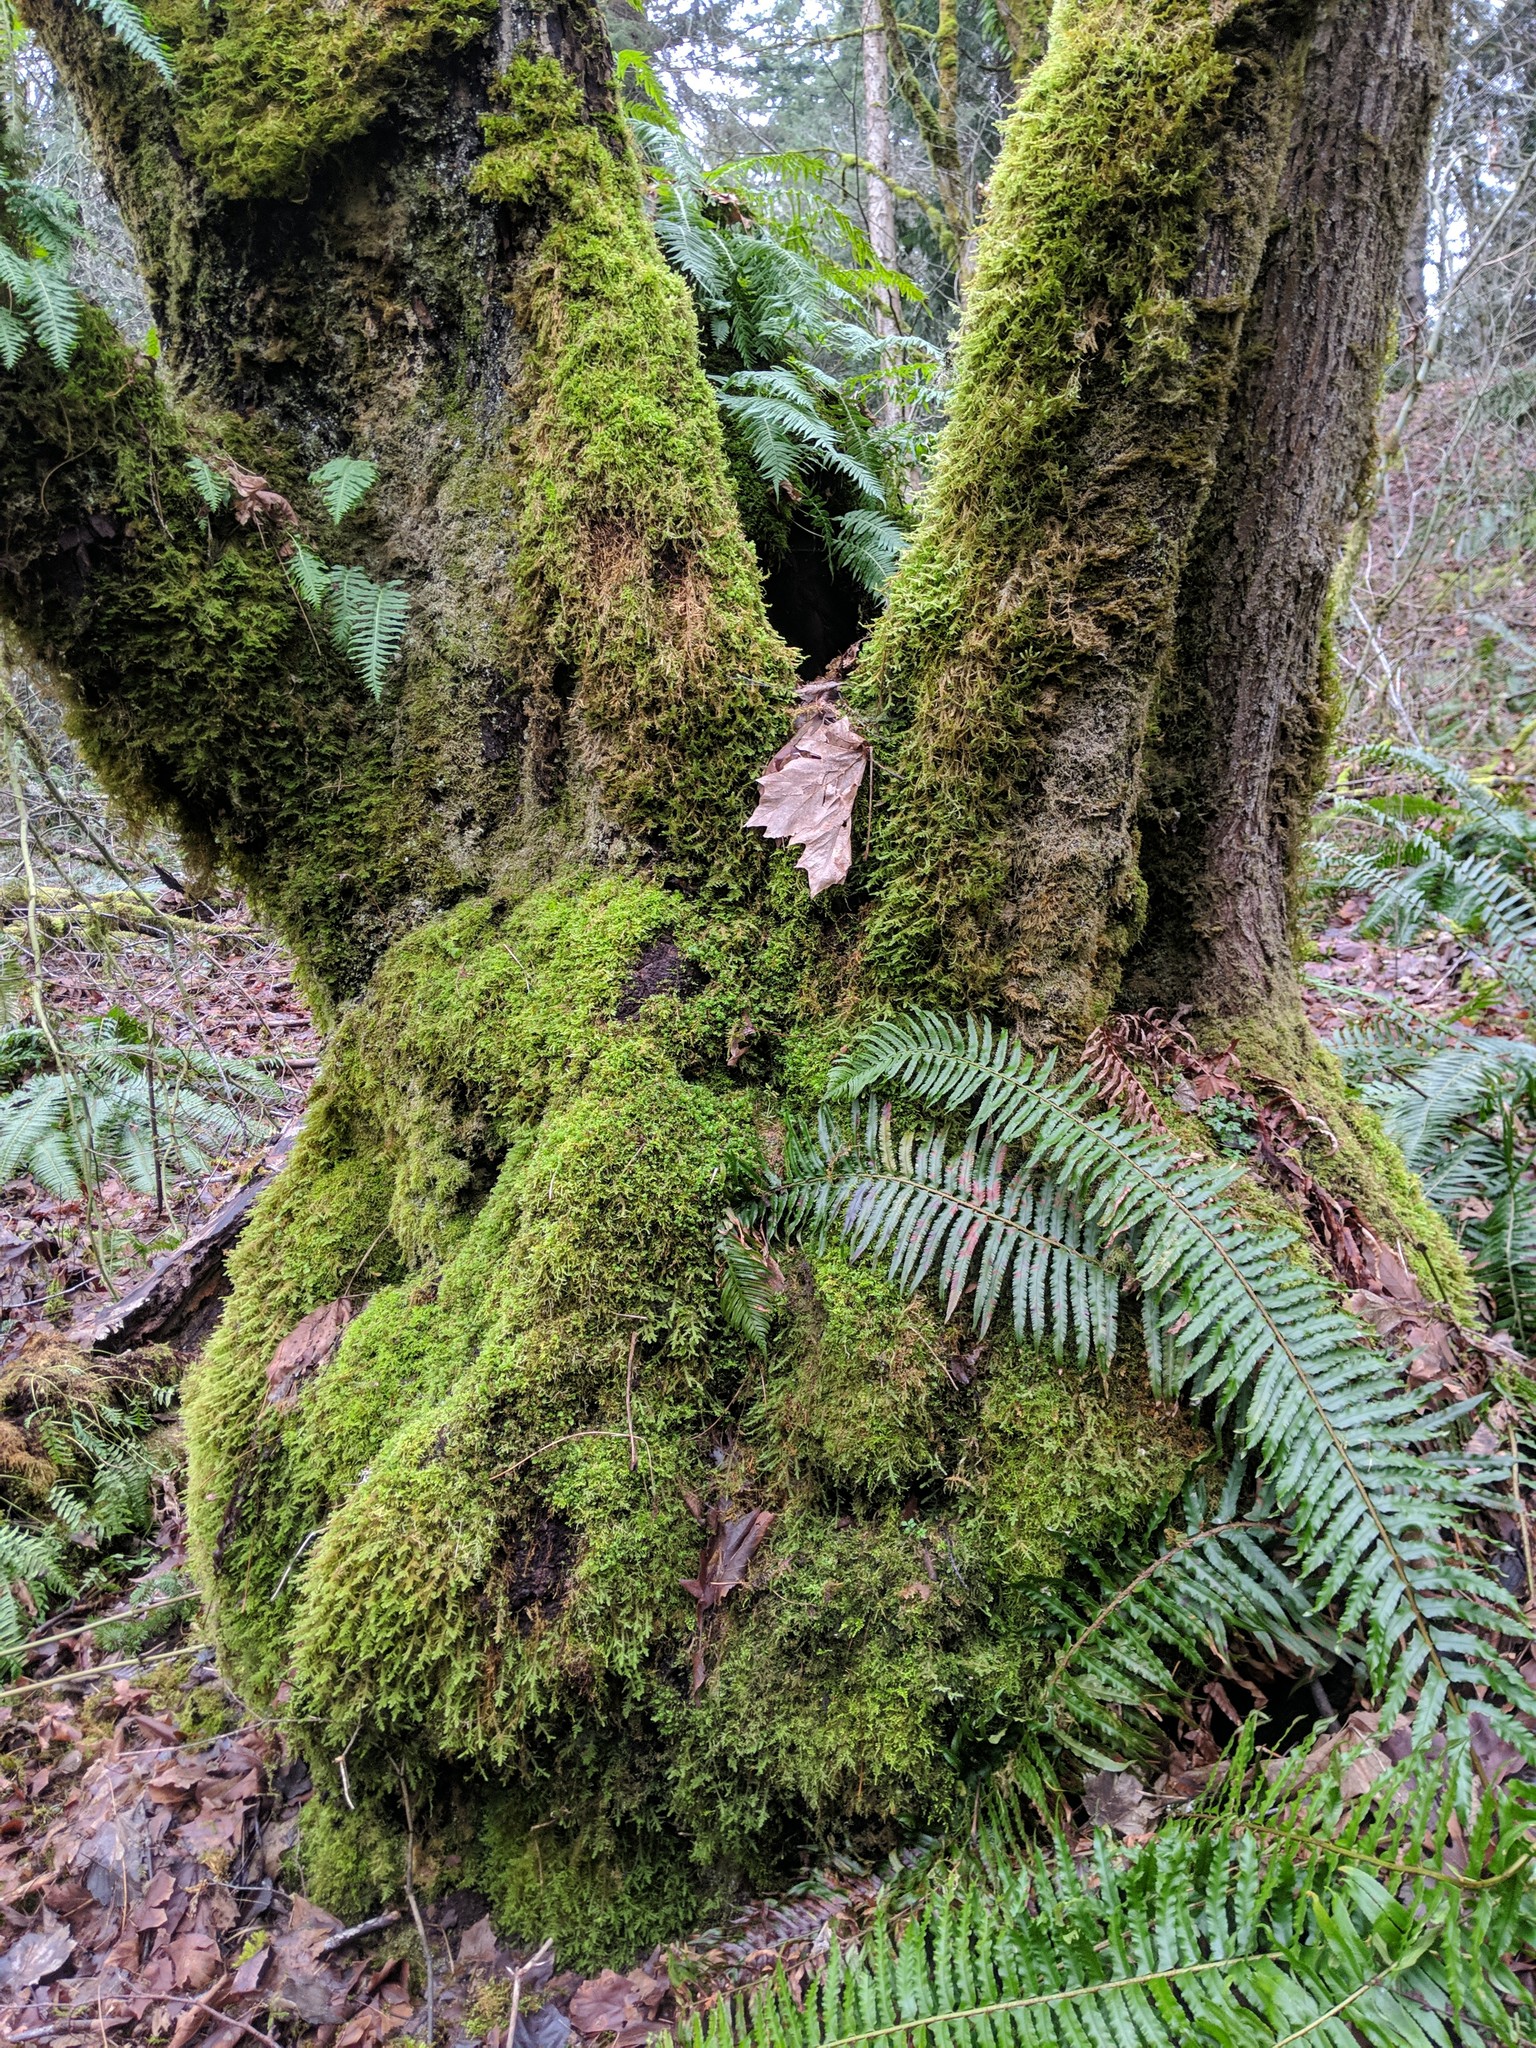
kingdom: Plantae
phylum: Tracheophyta
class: Magnoliopsida
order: Sapindales
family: Sapindaceae
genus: Acer
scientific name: Acer macrophyllum
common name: Oregon maple
